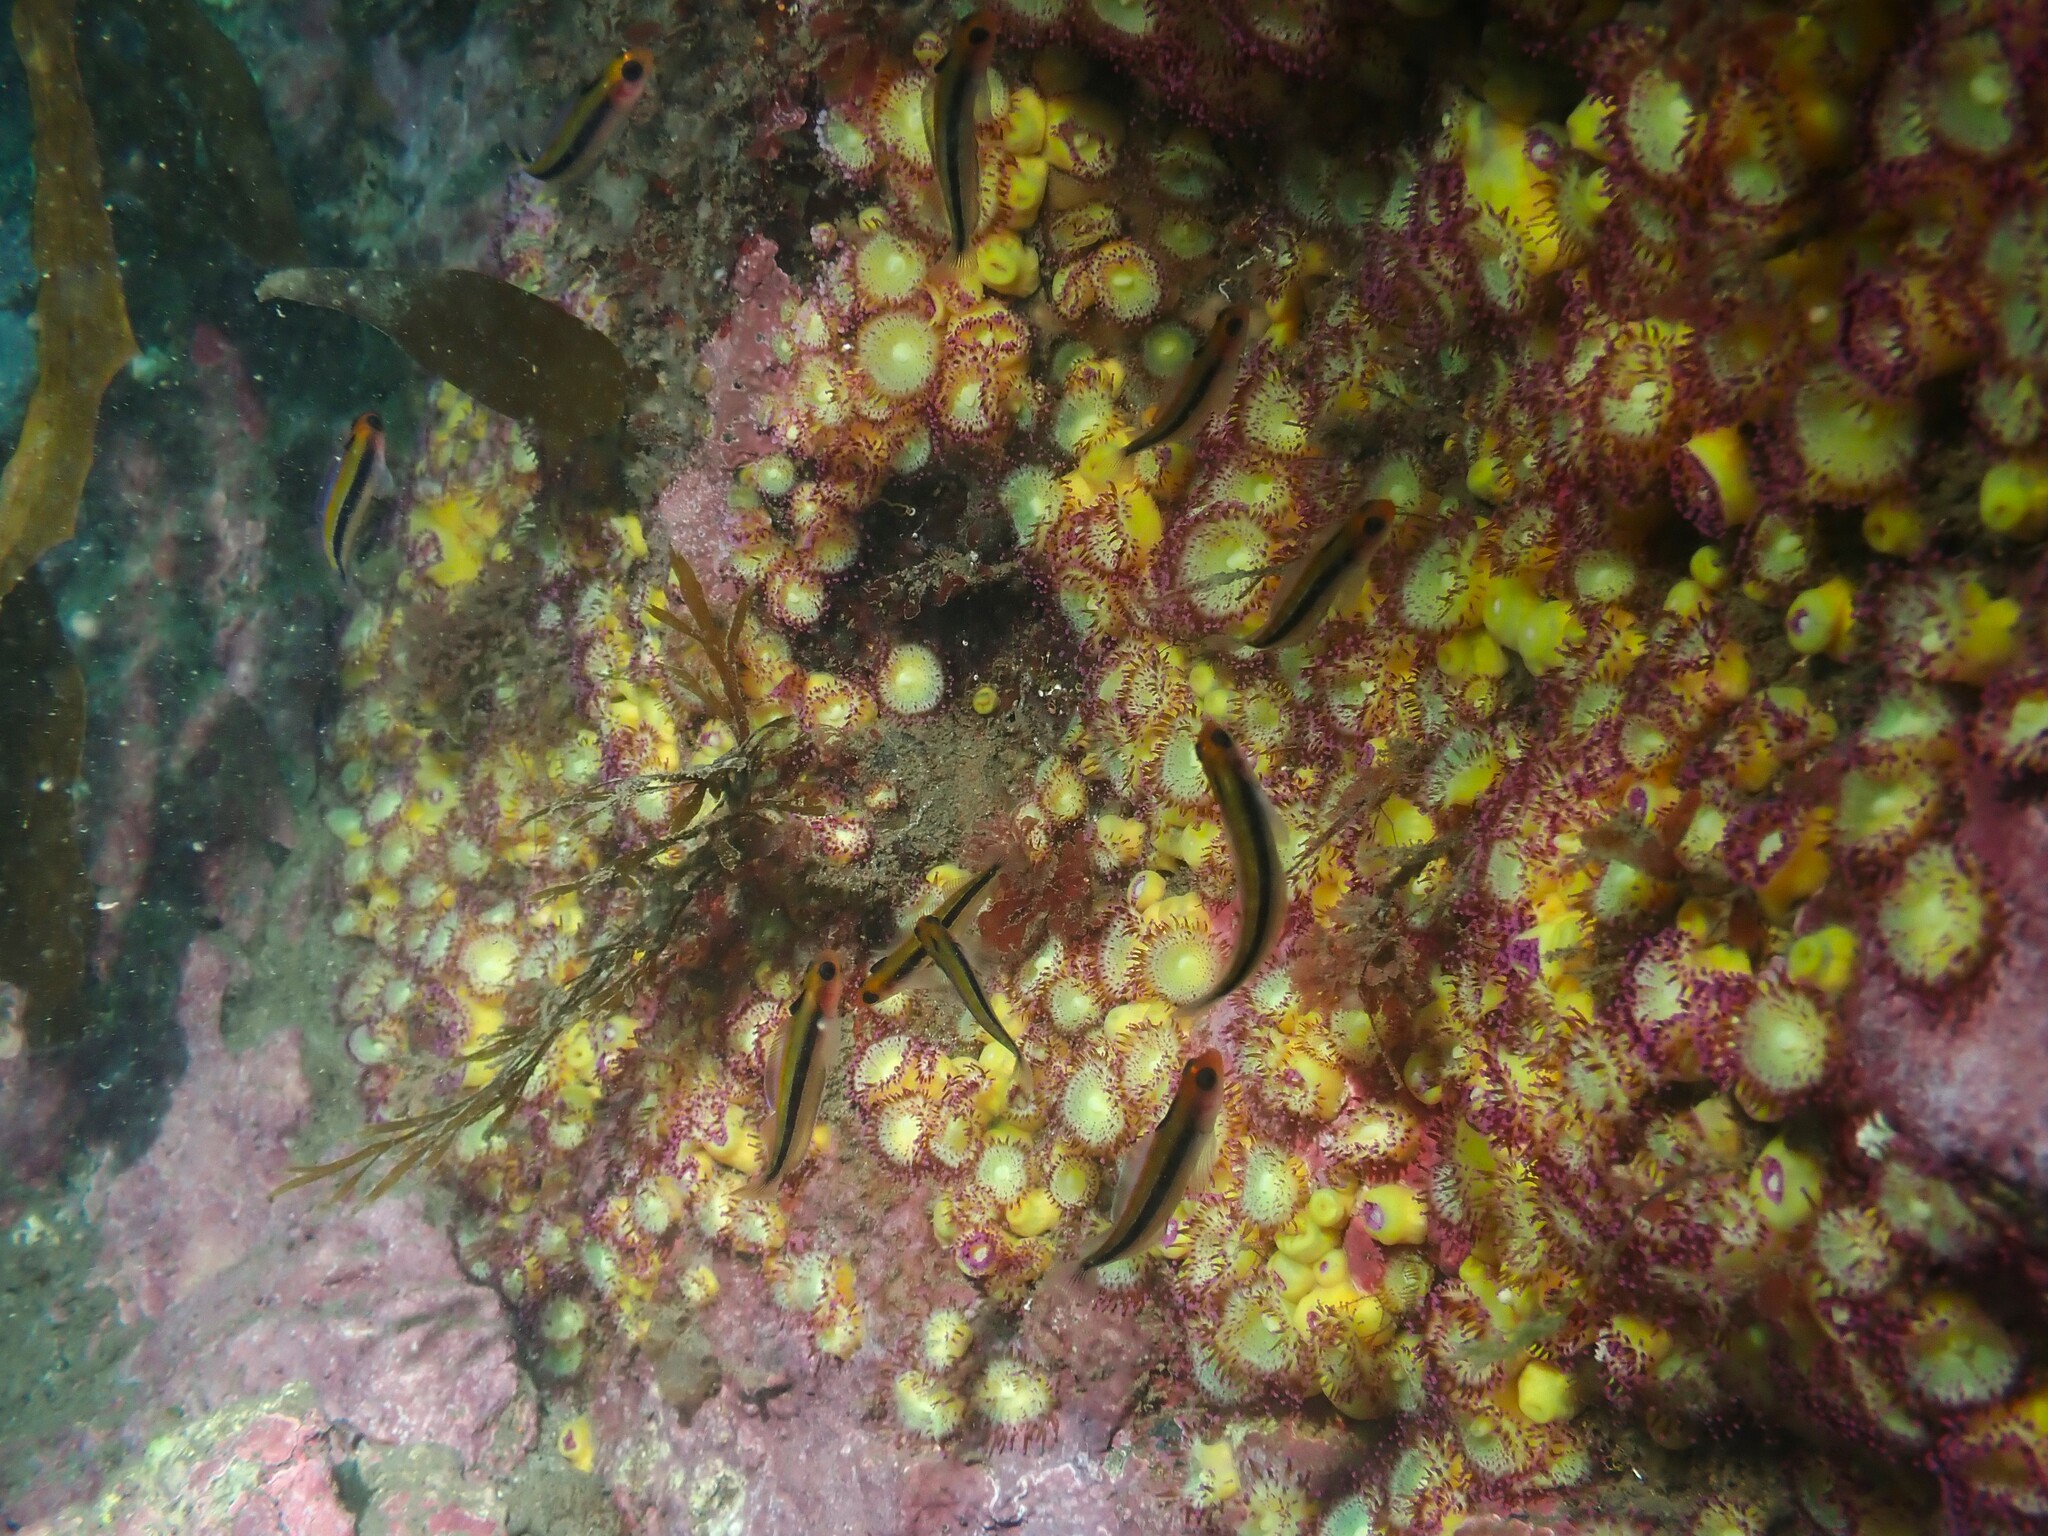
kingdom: Animalia
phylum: Chordata
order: Perciformes
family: Tripterygiidae
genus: Forsterygion
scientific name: Forsterygion maryannae
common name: Oblique-swimming triplefin
